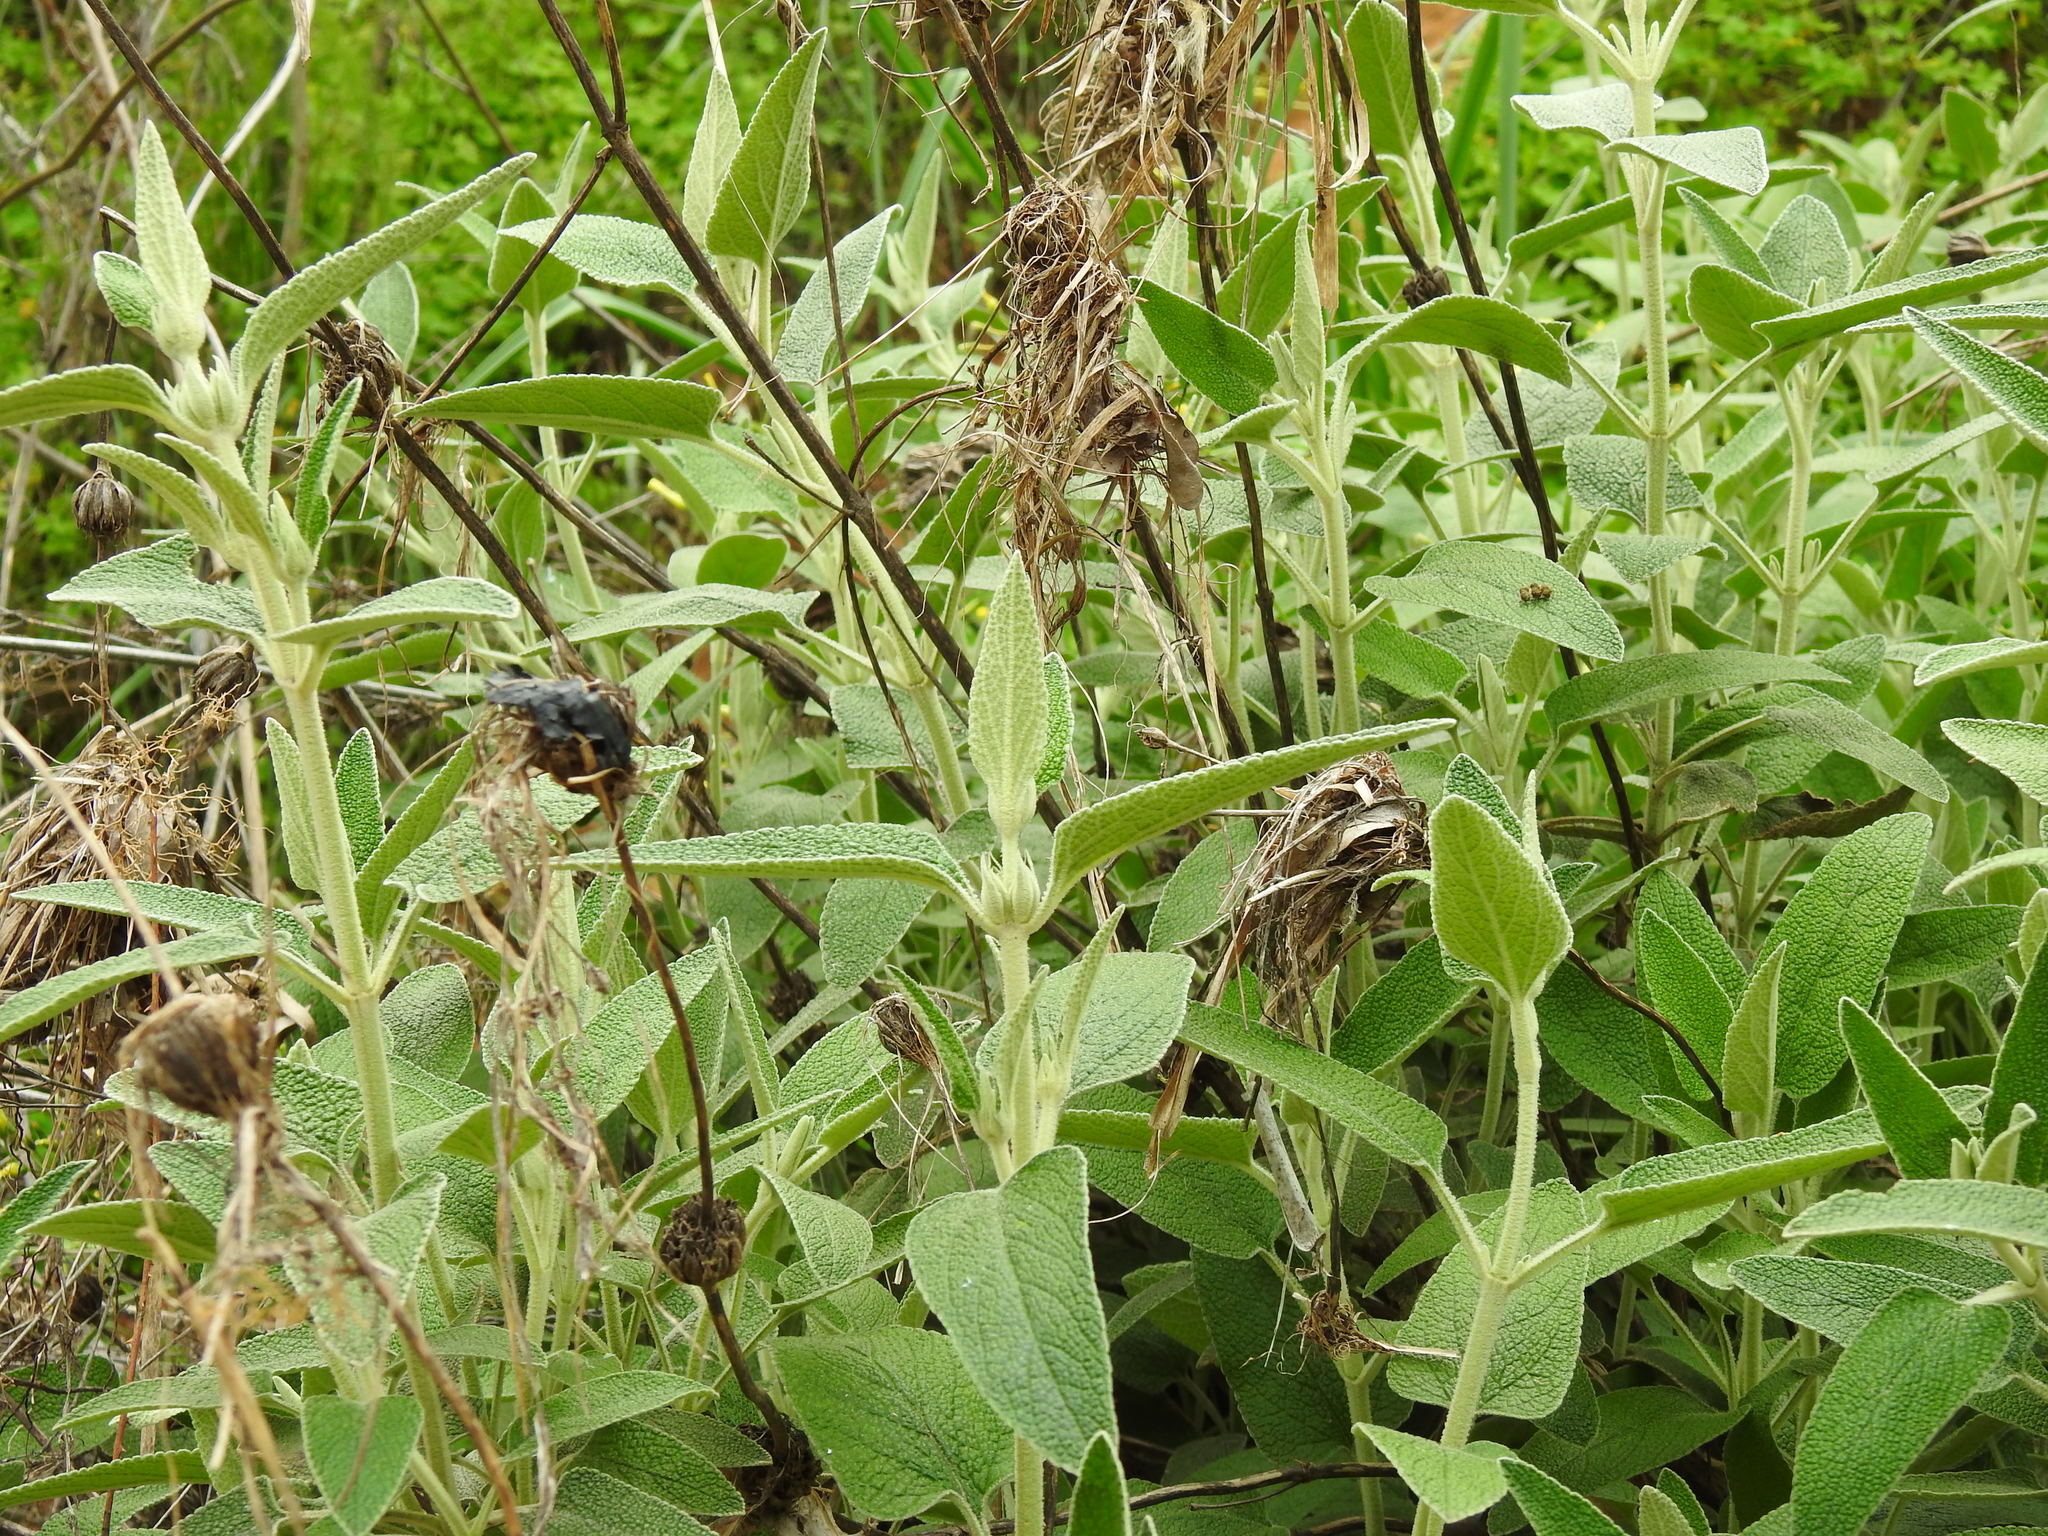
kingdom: Plantae
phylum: Tracheophyta
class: Magnoliopsida
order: Lamiales
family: Lamiaceae
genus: Phlomis
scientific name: Phlomis purpurea
